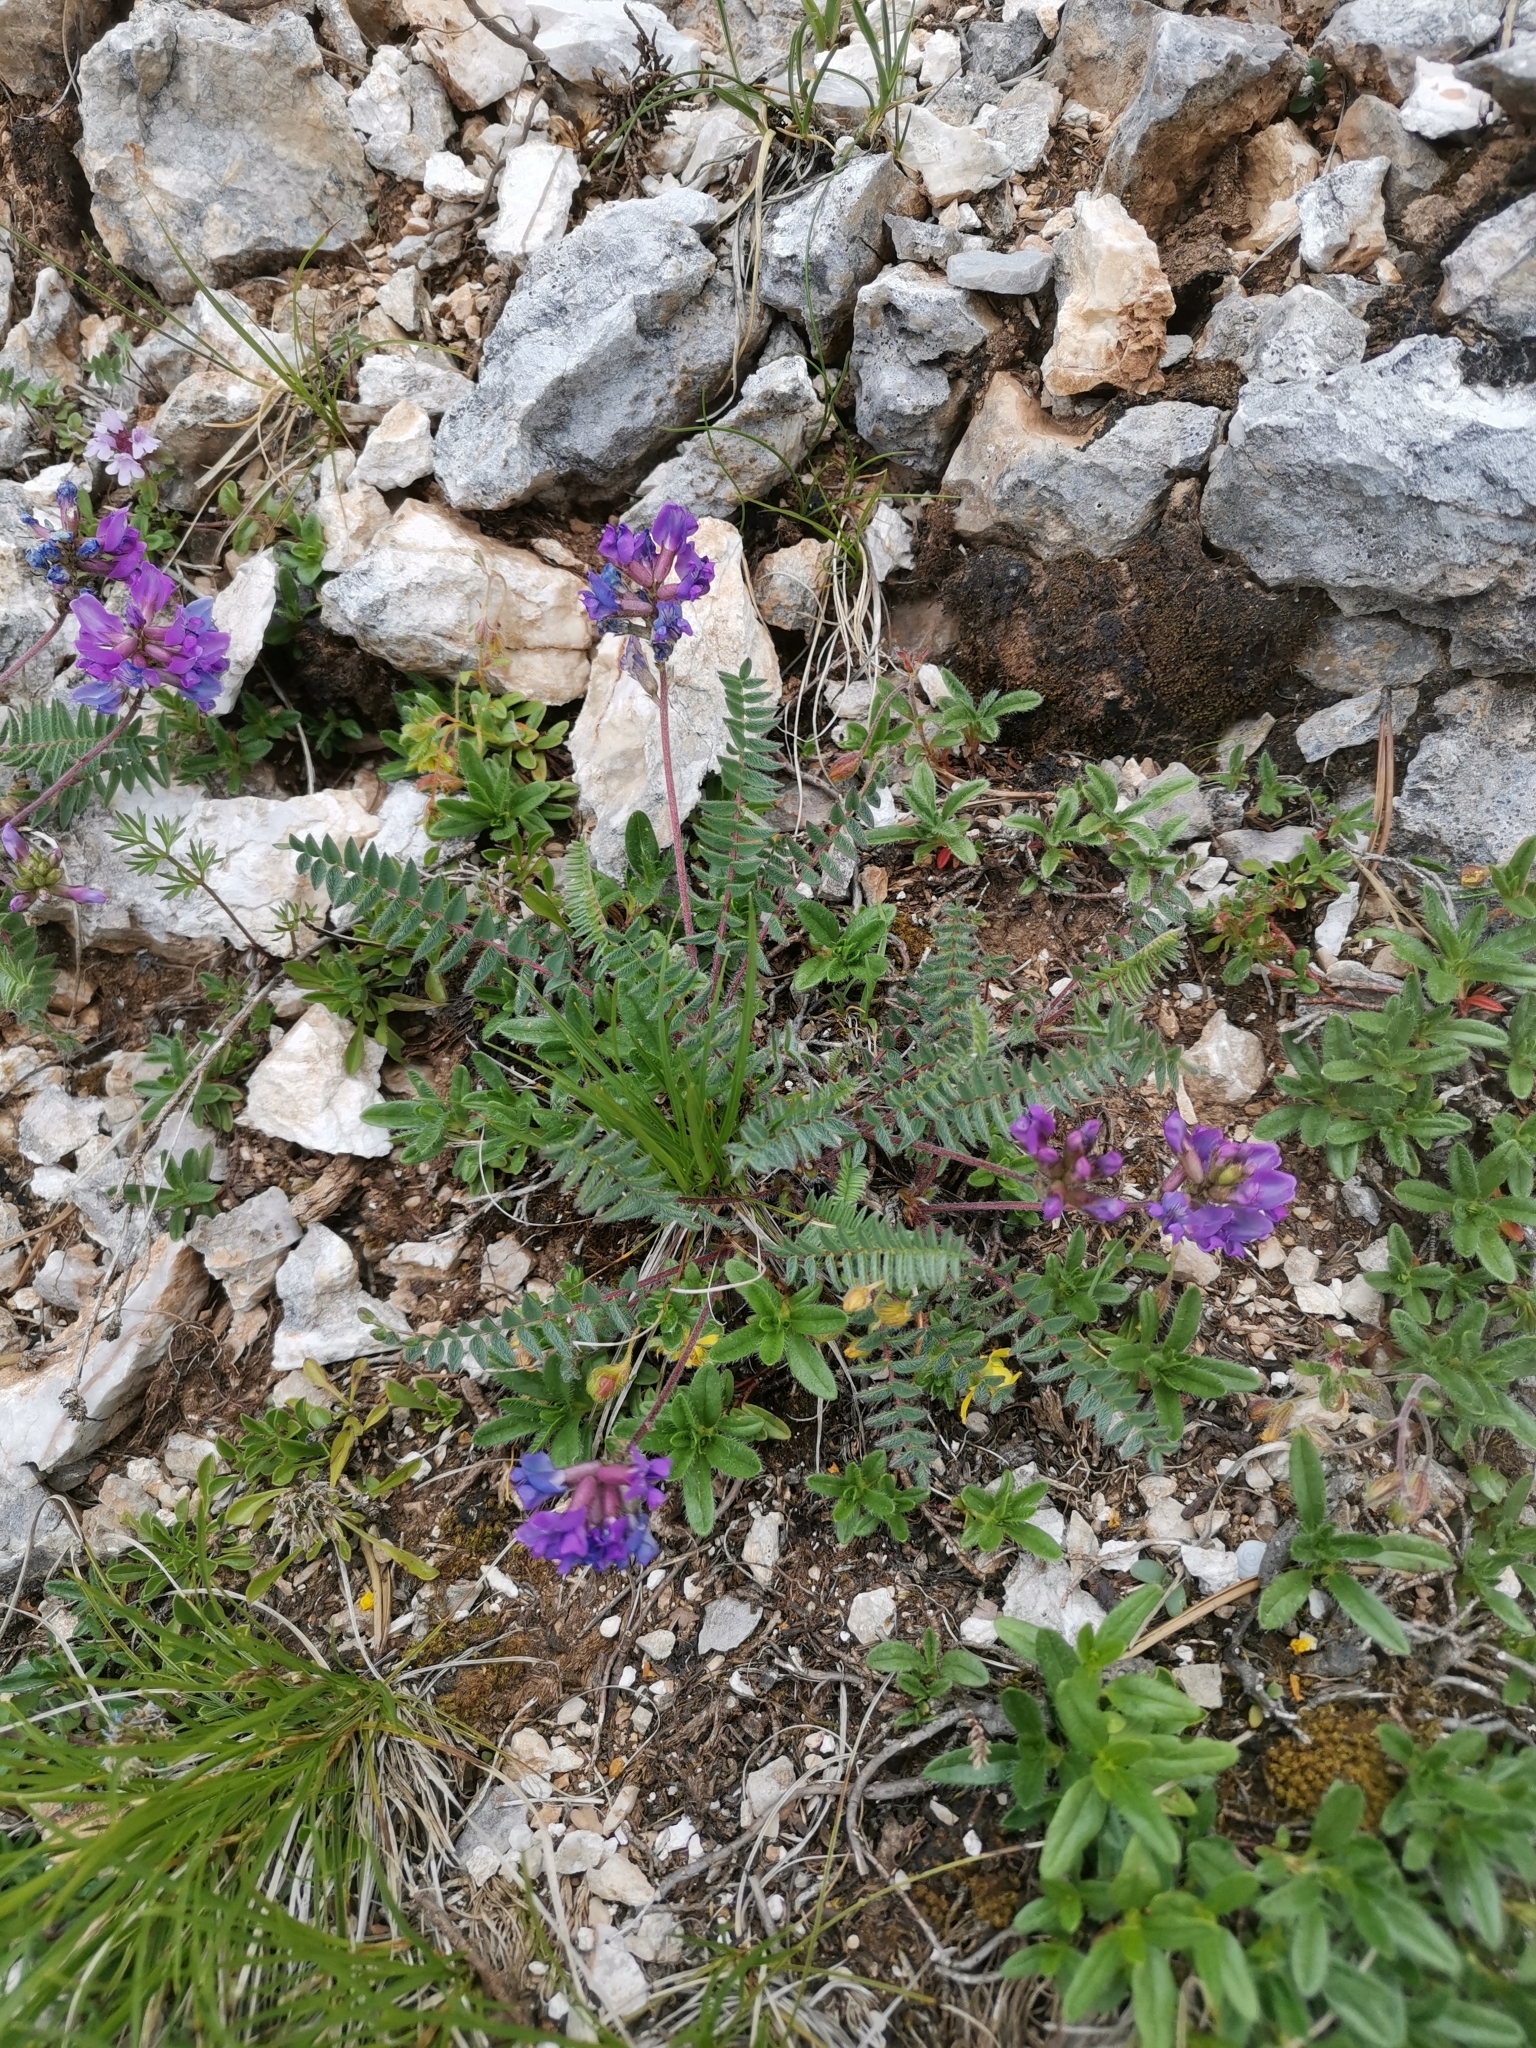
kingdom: Plantae
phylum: Tracheophyta
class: Magnoliopsida
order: Fabales
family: Fabaceae
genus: Oxytropis
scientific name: Oxytropis neglecta
